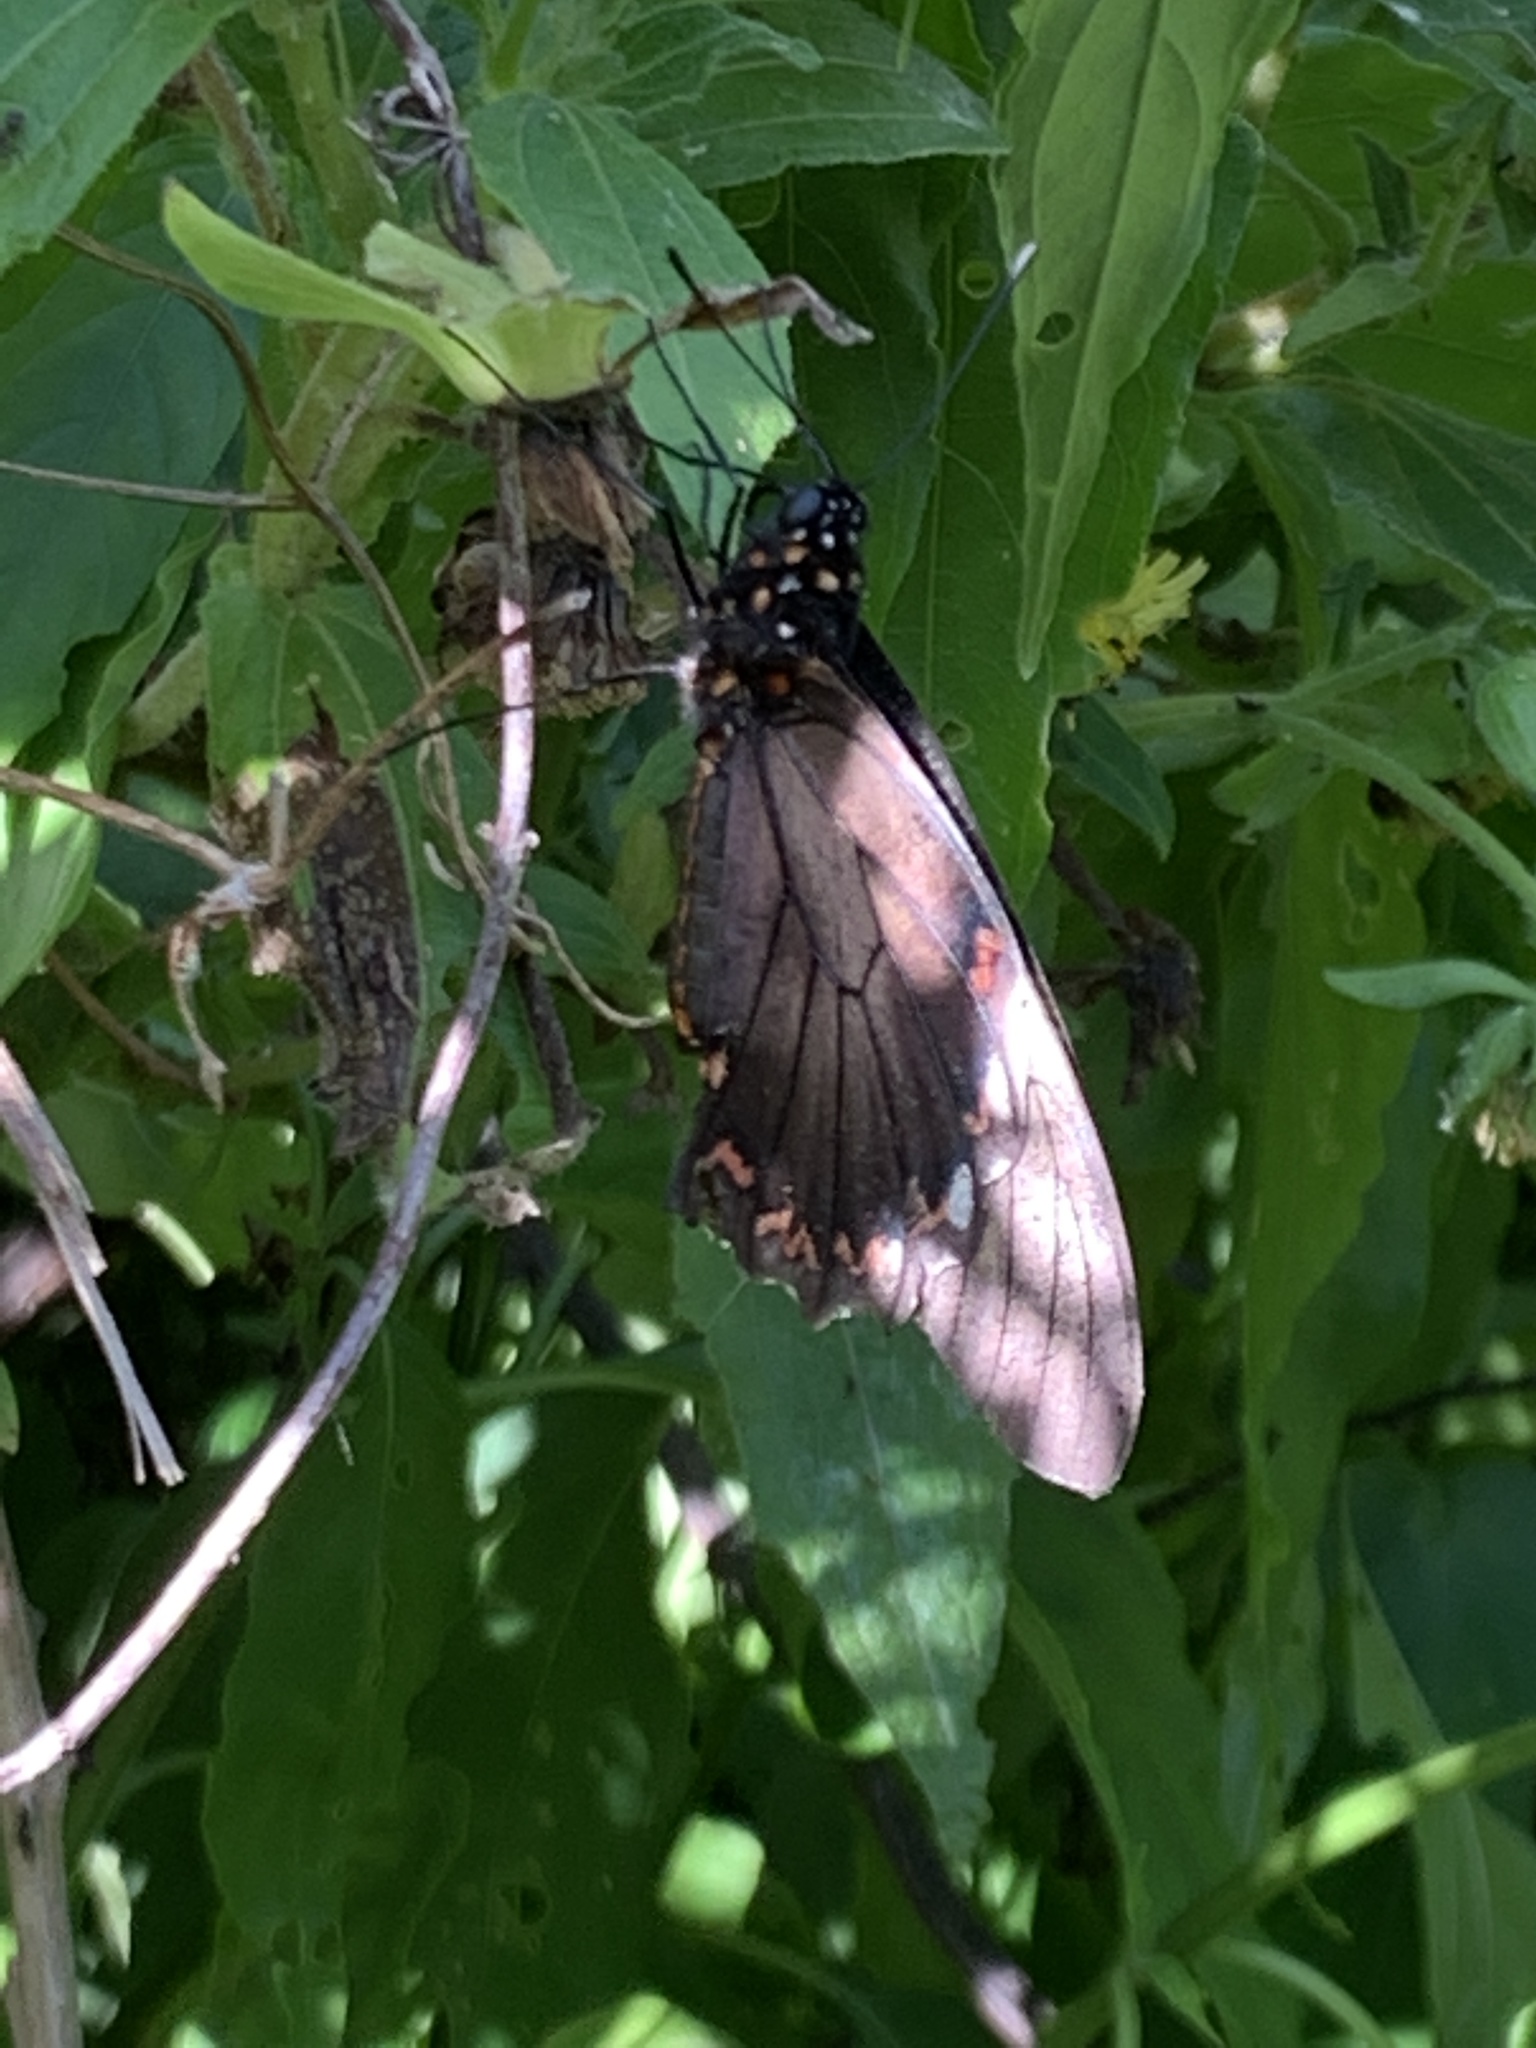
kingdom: Animalia
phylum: Arthropoda
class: Insecta
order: Lepidoptera
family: Papilionidae
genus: Battus
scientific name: Battus polydamas
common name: Polydamas swallowtail
